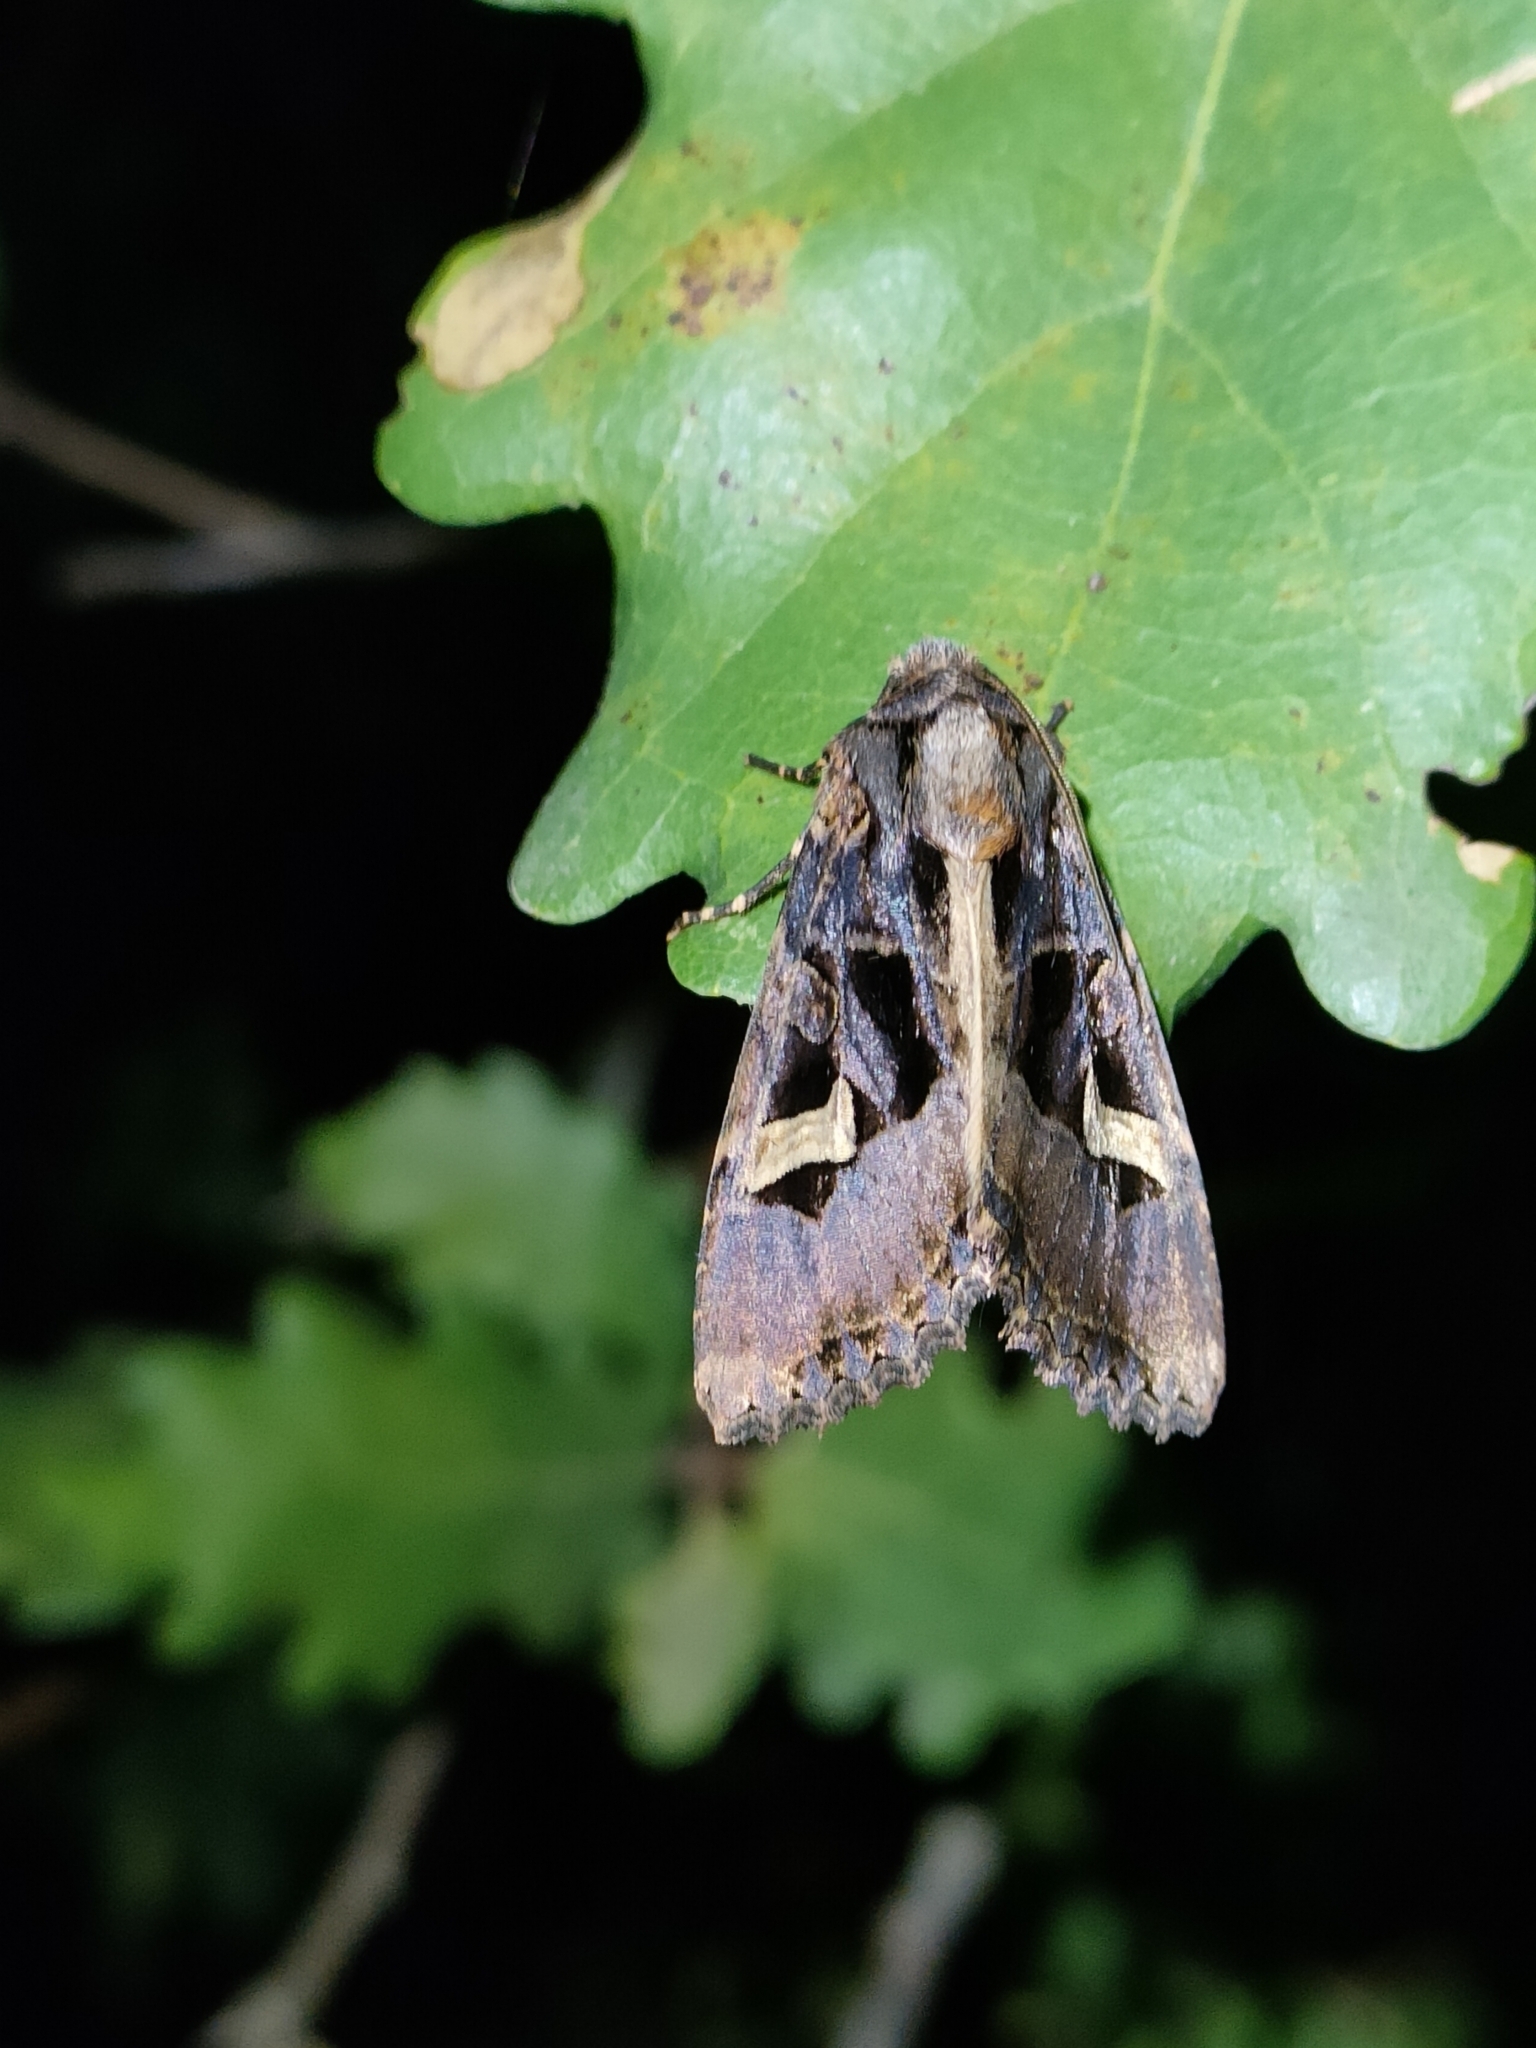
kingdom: Animalia
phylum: Arthropoda
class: Insecta
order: Lepidoptera
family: Noctuidae
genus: Trigonophora
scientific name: Trigonophora flammea
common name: Flame brocade
